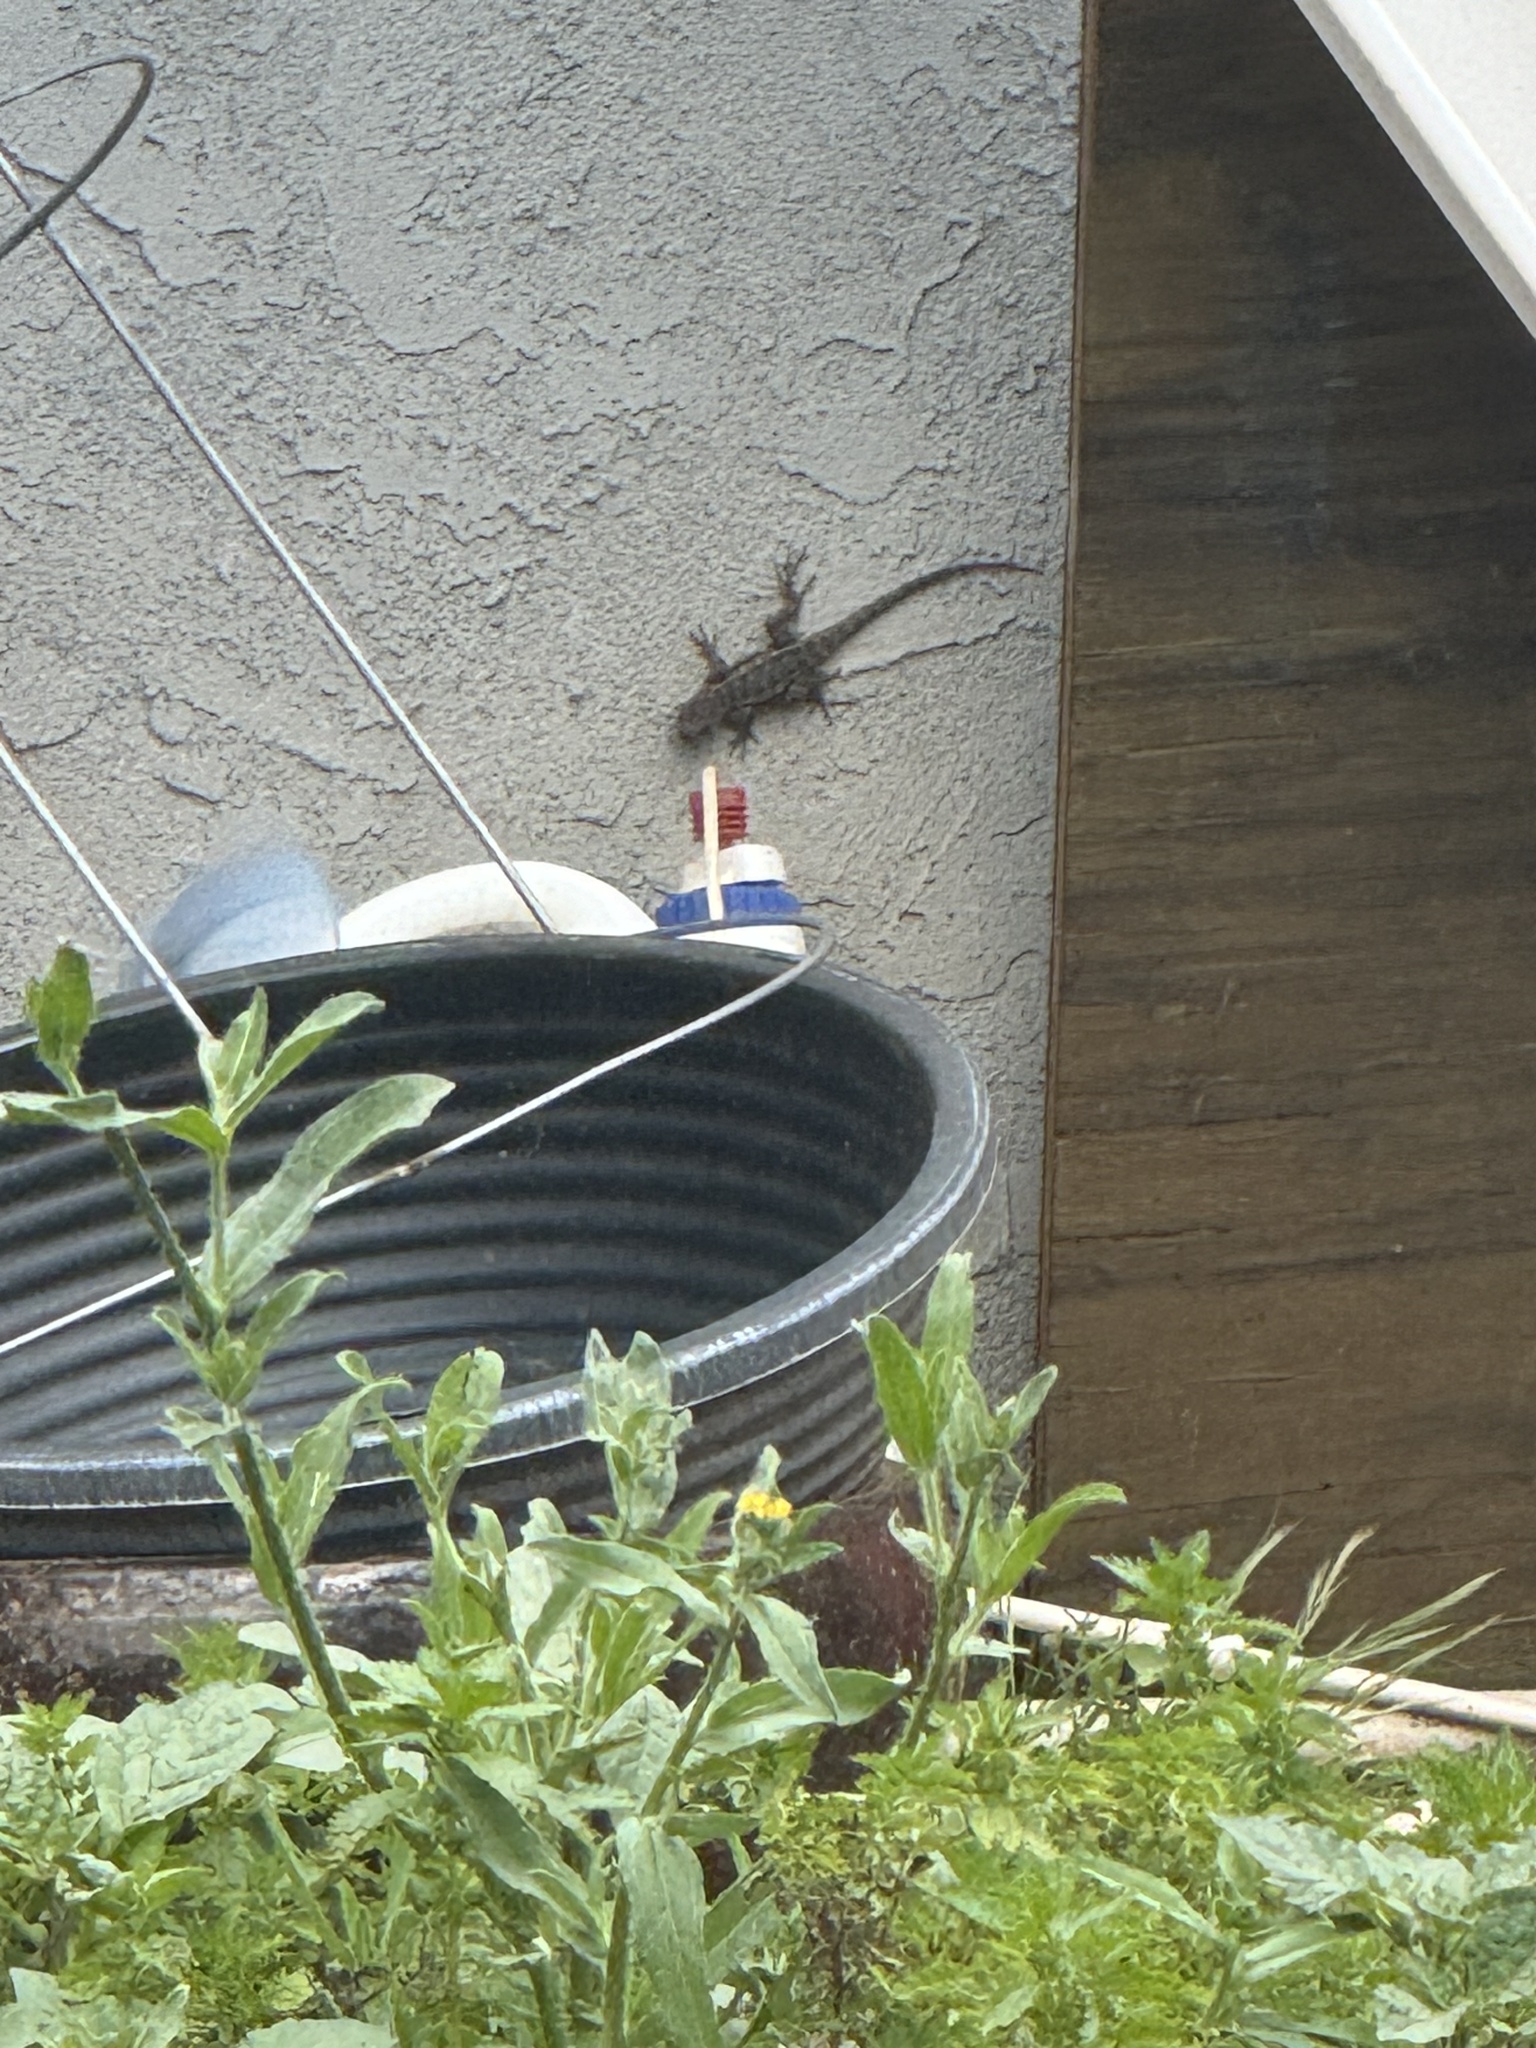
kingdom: Animalia
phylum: Chordata
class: Squamata
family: Phrynosomatidae
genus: Sceloporus
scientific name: Sceloporus occidentalis
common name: Western fence lizard
